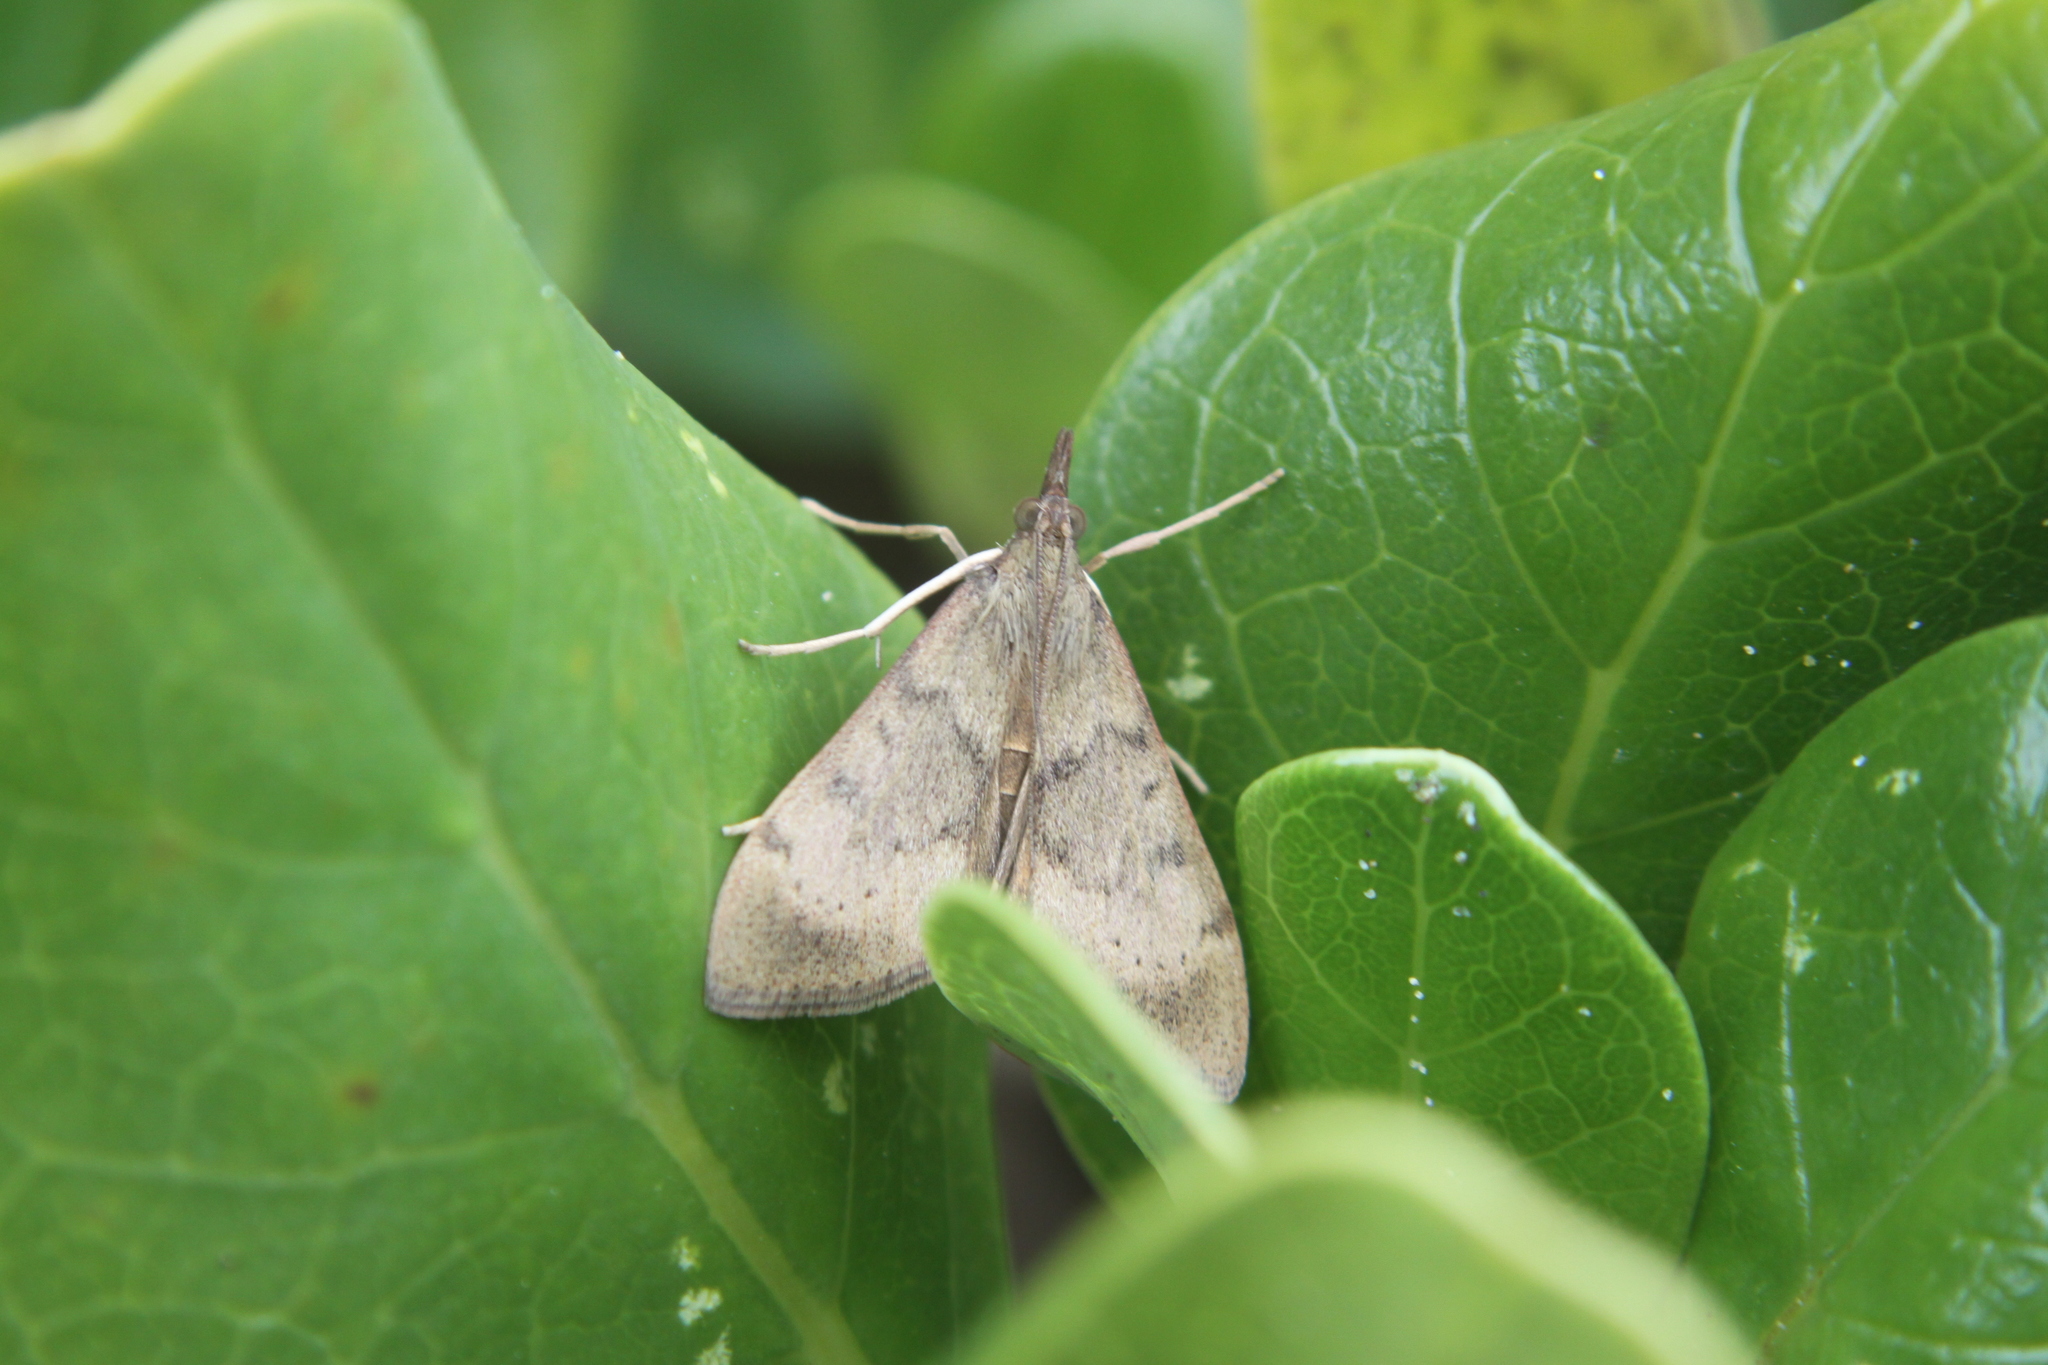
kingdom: Animalia
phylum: Arthropoda
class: Insecta
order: Lepidoptera
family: Crambidae
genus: Uresiphita
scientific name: Uresiphita polygonalis
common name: Moth
